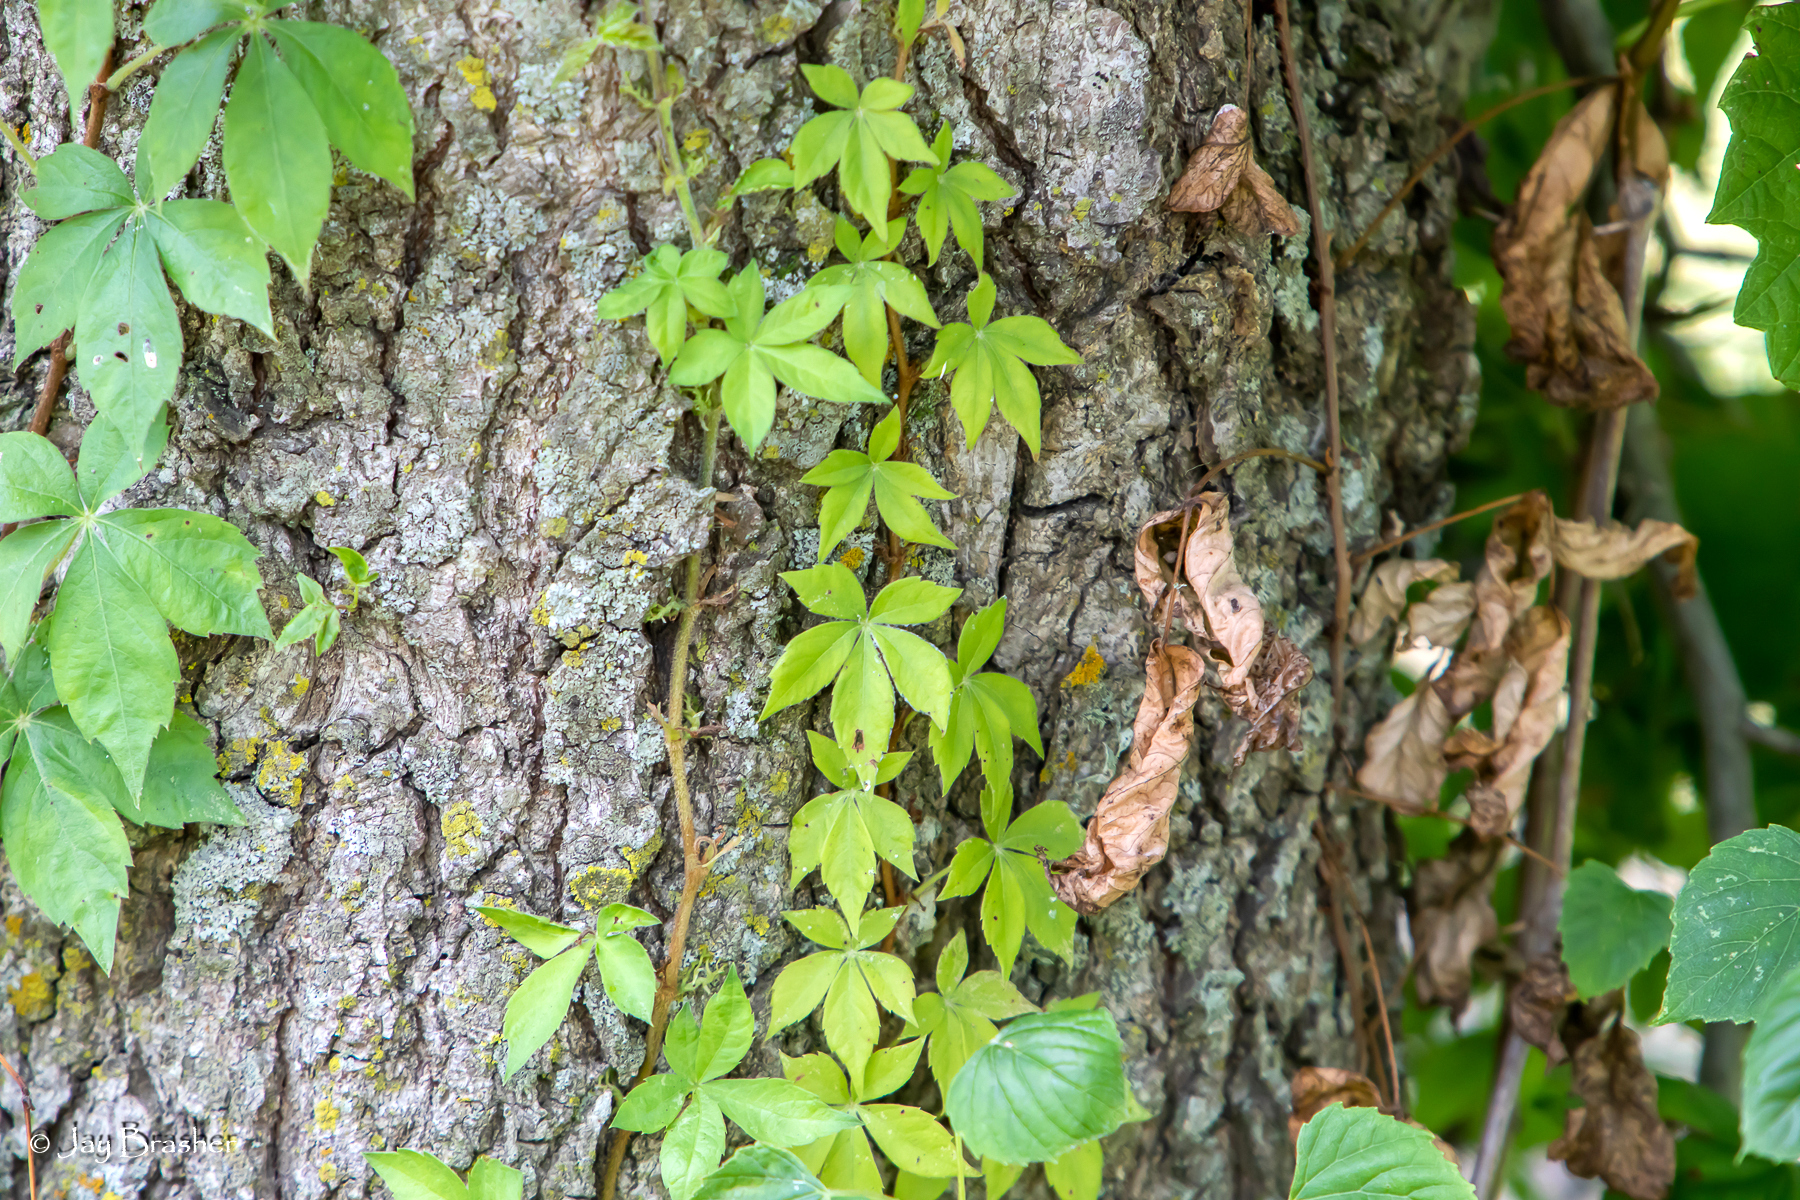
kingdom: Plantae
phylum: Tracheophyta
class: Magnoliopsida
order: Vitales
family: Vitaceae
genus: Parthenocissus
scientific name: Parthenocissus quinquefolia
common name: Virginia-creeper
